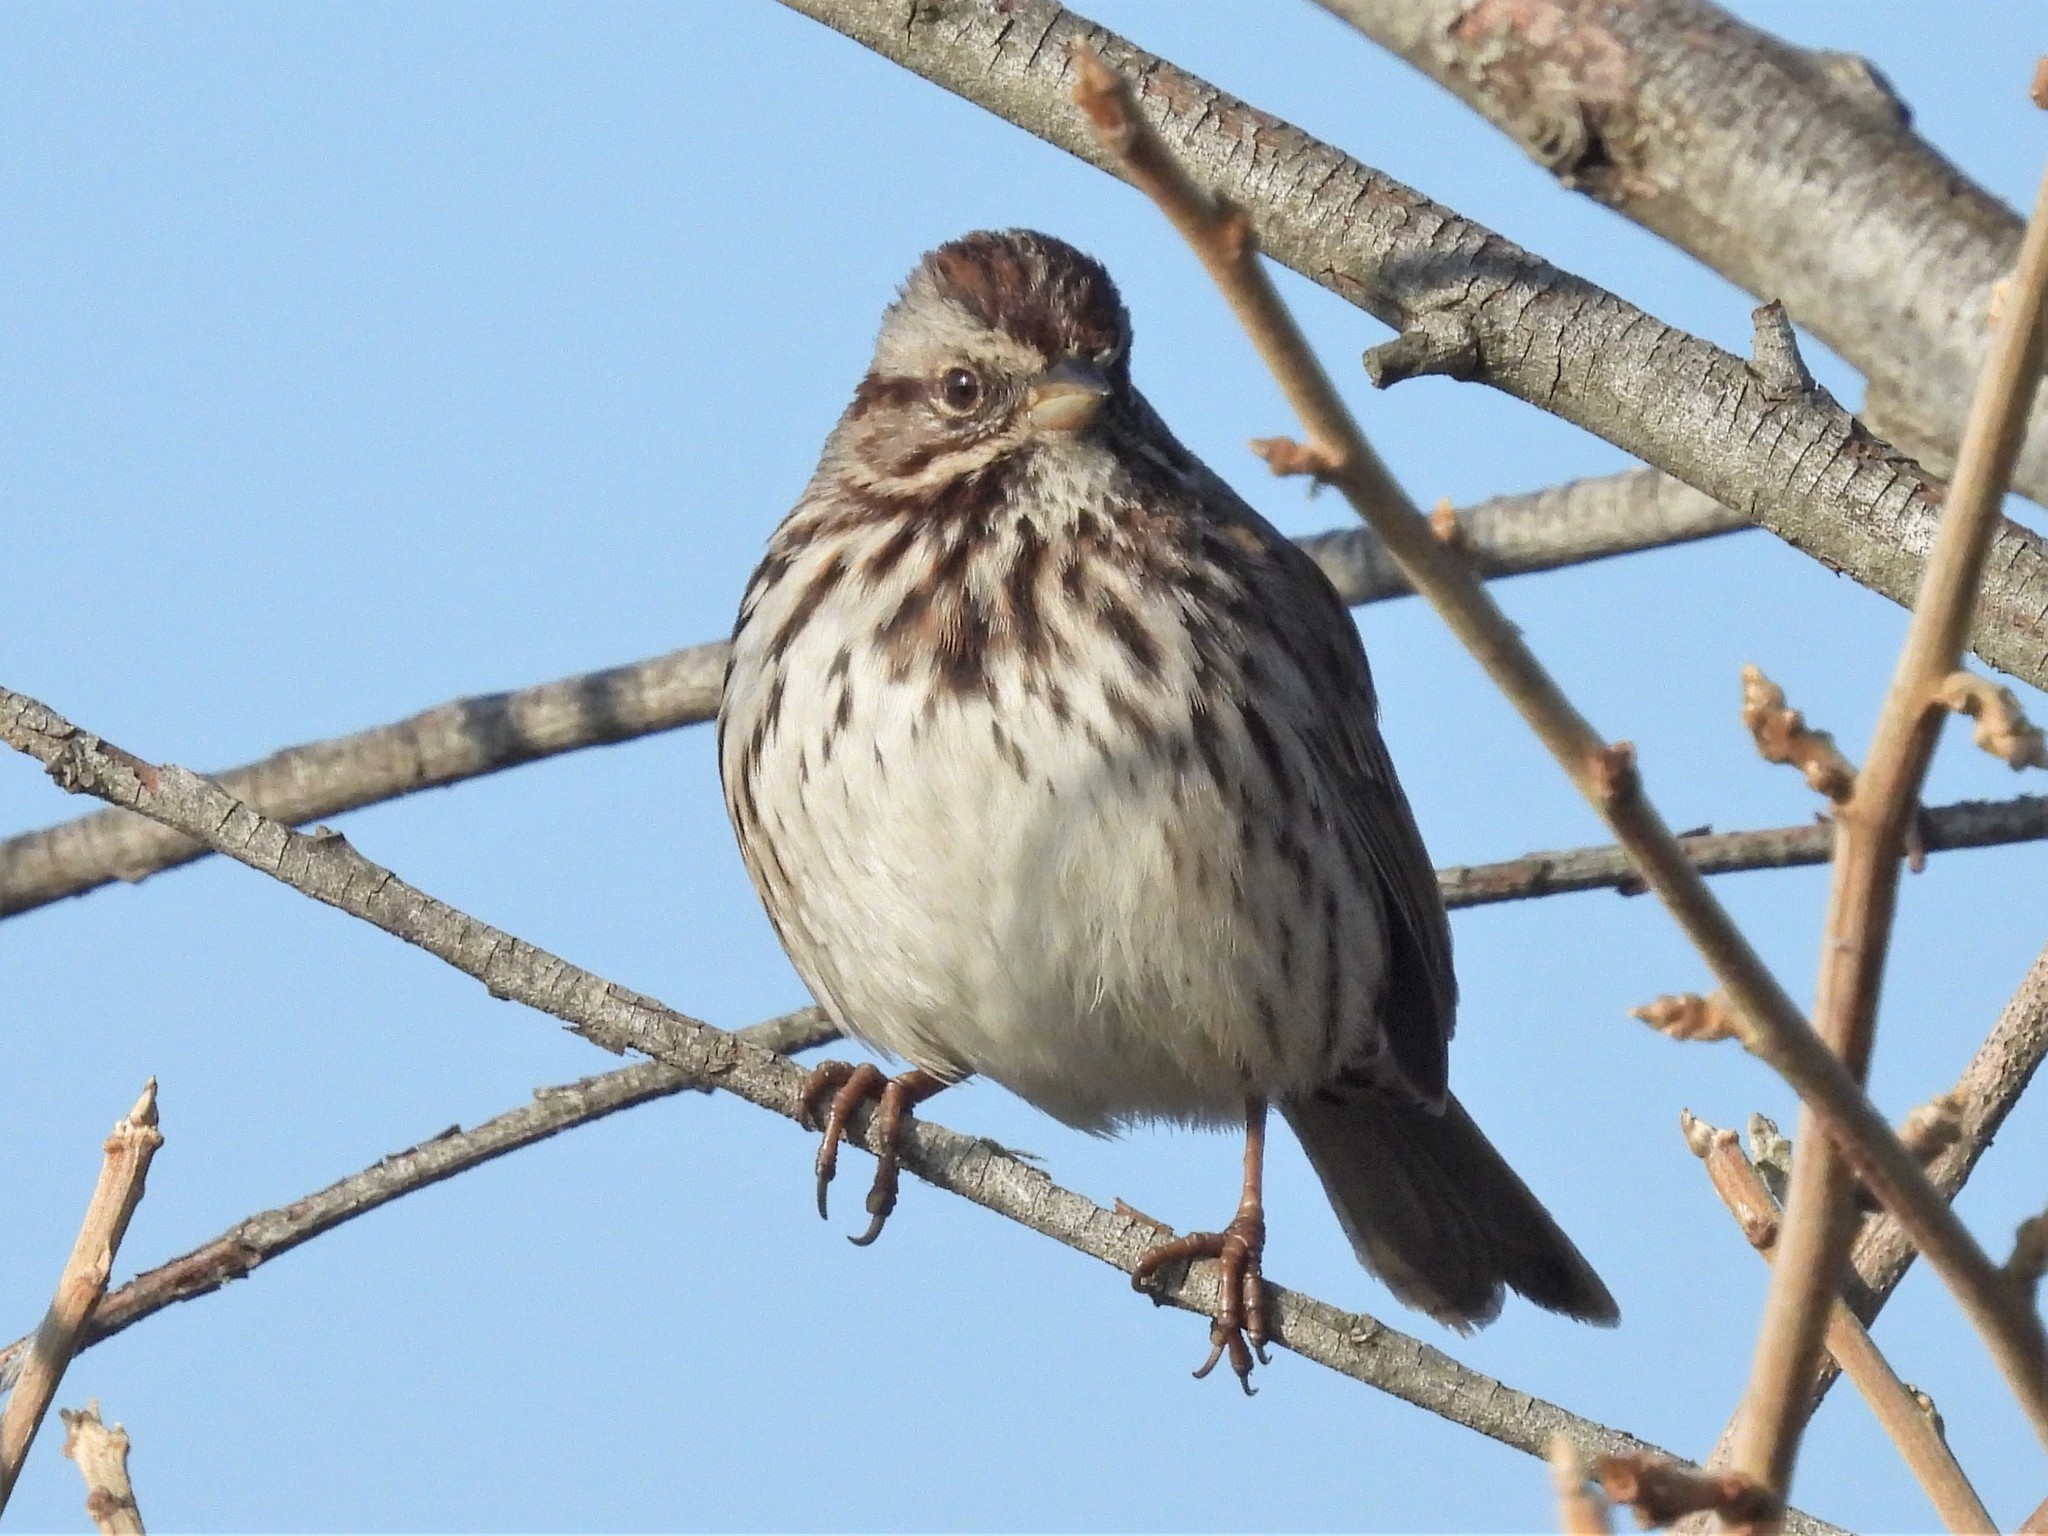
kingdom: Animalia
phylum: Chordata
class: Aves
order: Passeriformes
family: Passerellidae
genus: Melospiza
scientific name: Melospiza melodia
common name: Song sparrow
